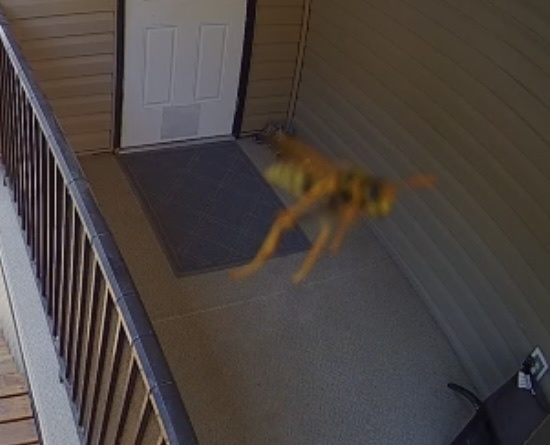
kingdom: Animalia
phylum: Arthropoda
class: Insecta
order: Hymenoptera
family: Eumenidae
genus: Polistes
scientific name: Polistes dominula
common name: Paper wasp
